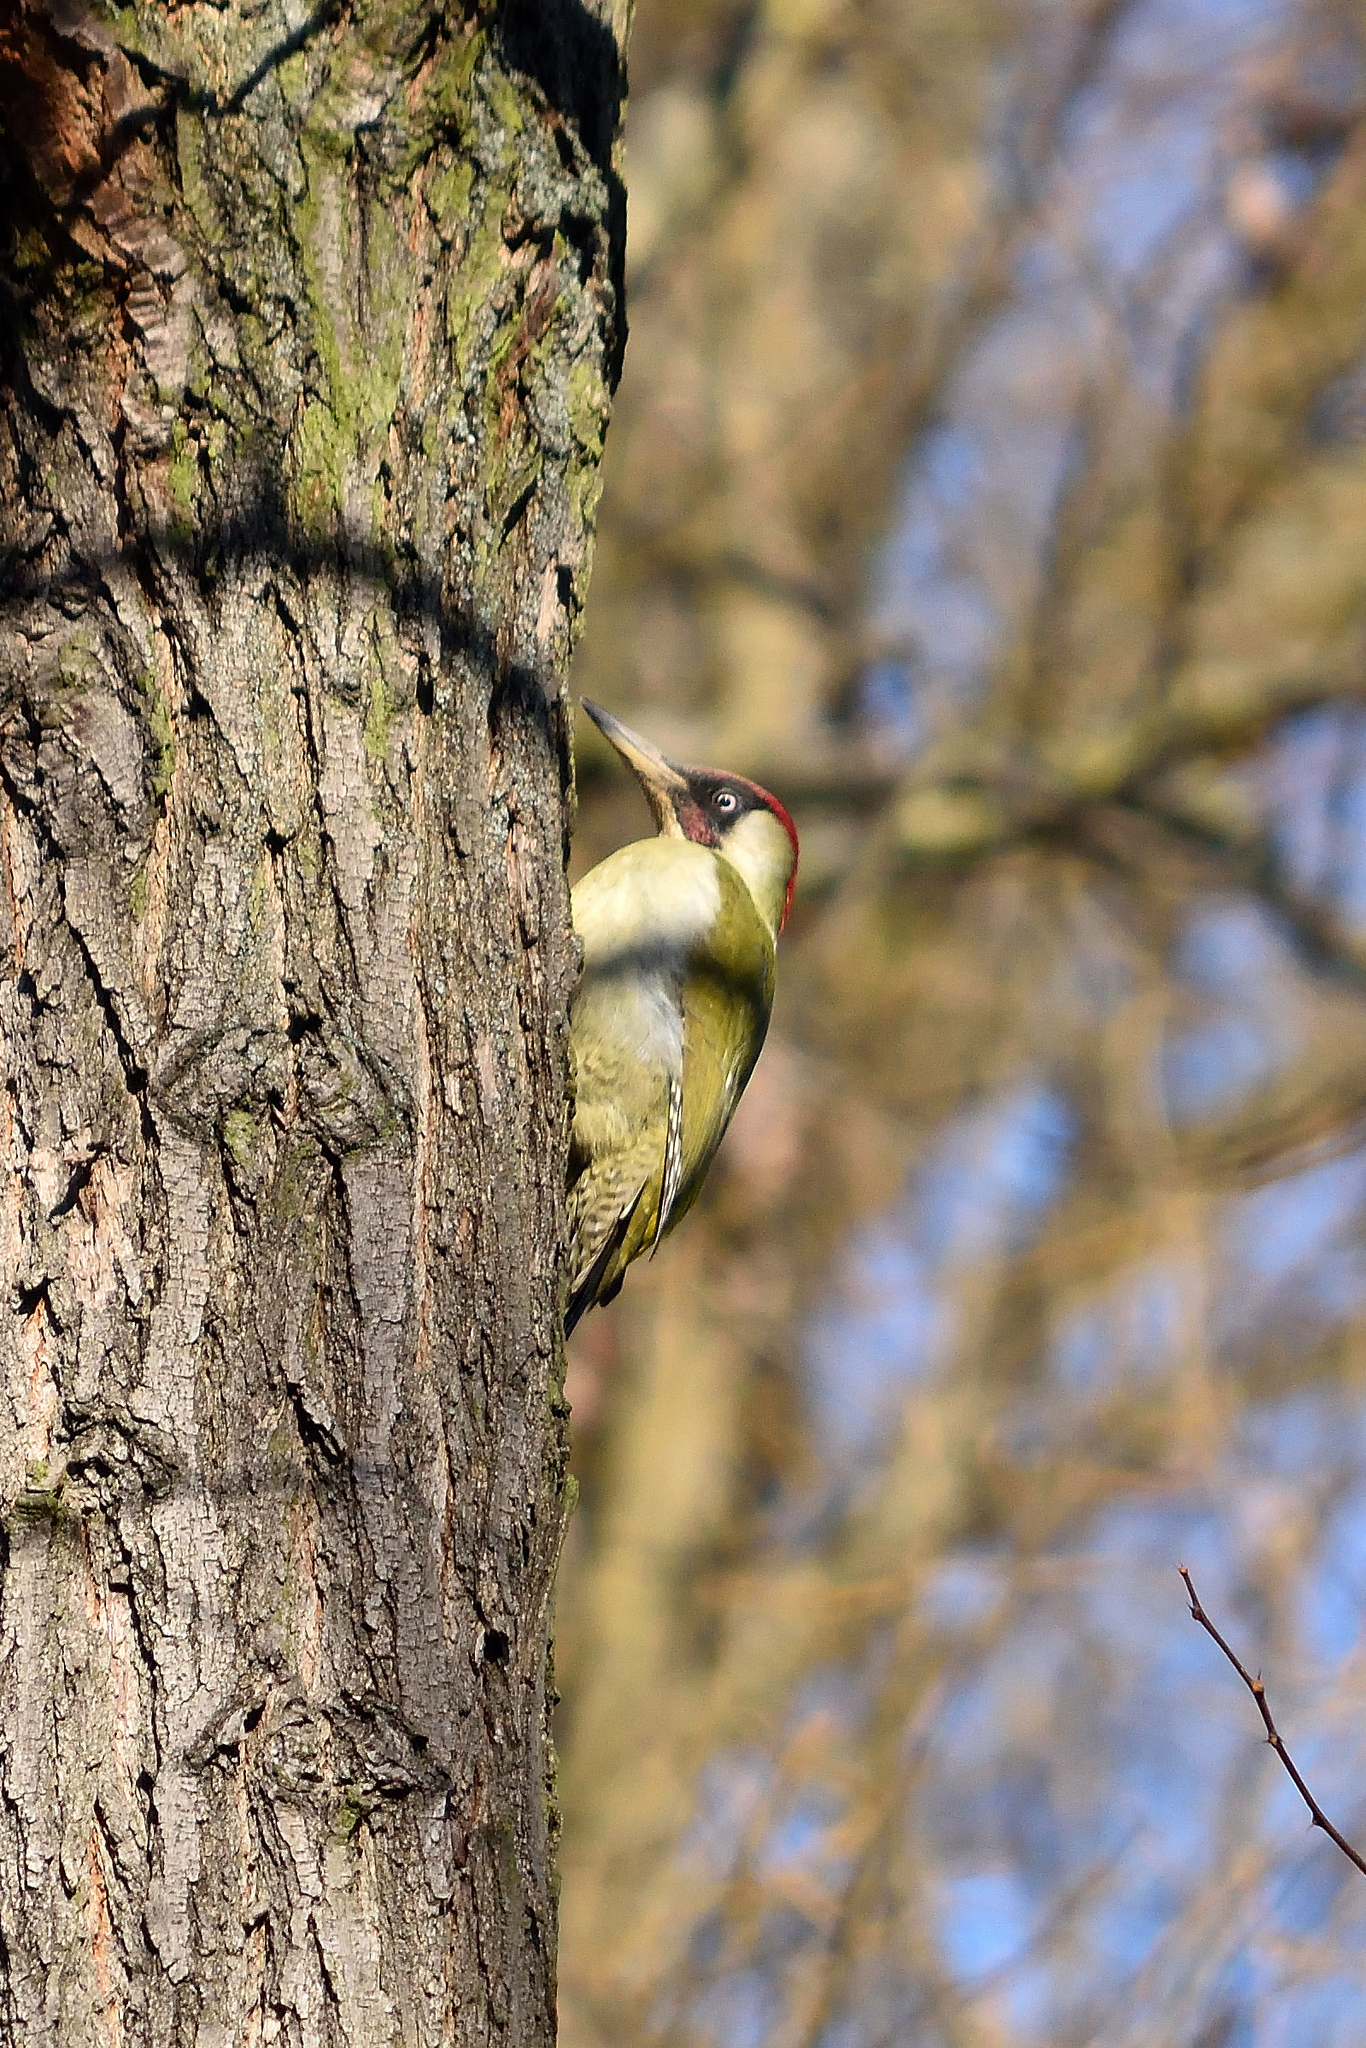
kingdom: Animalia
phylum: Chordata
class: Aves
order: Piciformes
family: Picidae
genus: Picus
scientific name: Picus viridis
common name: European green woodpecker
